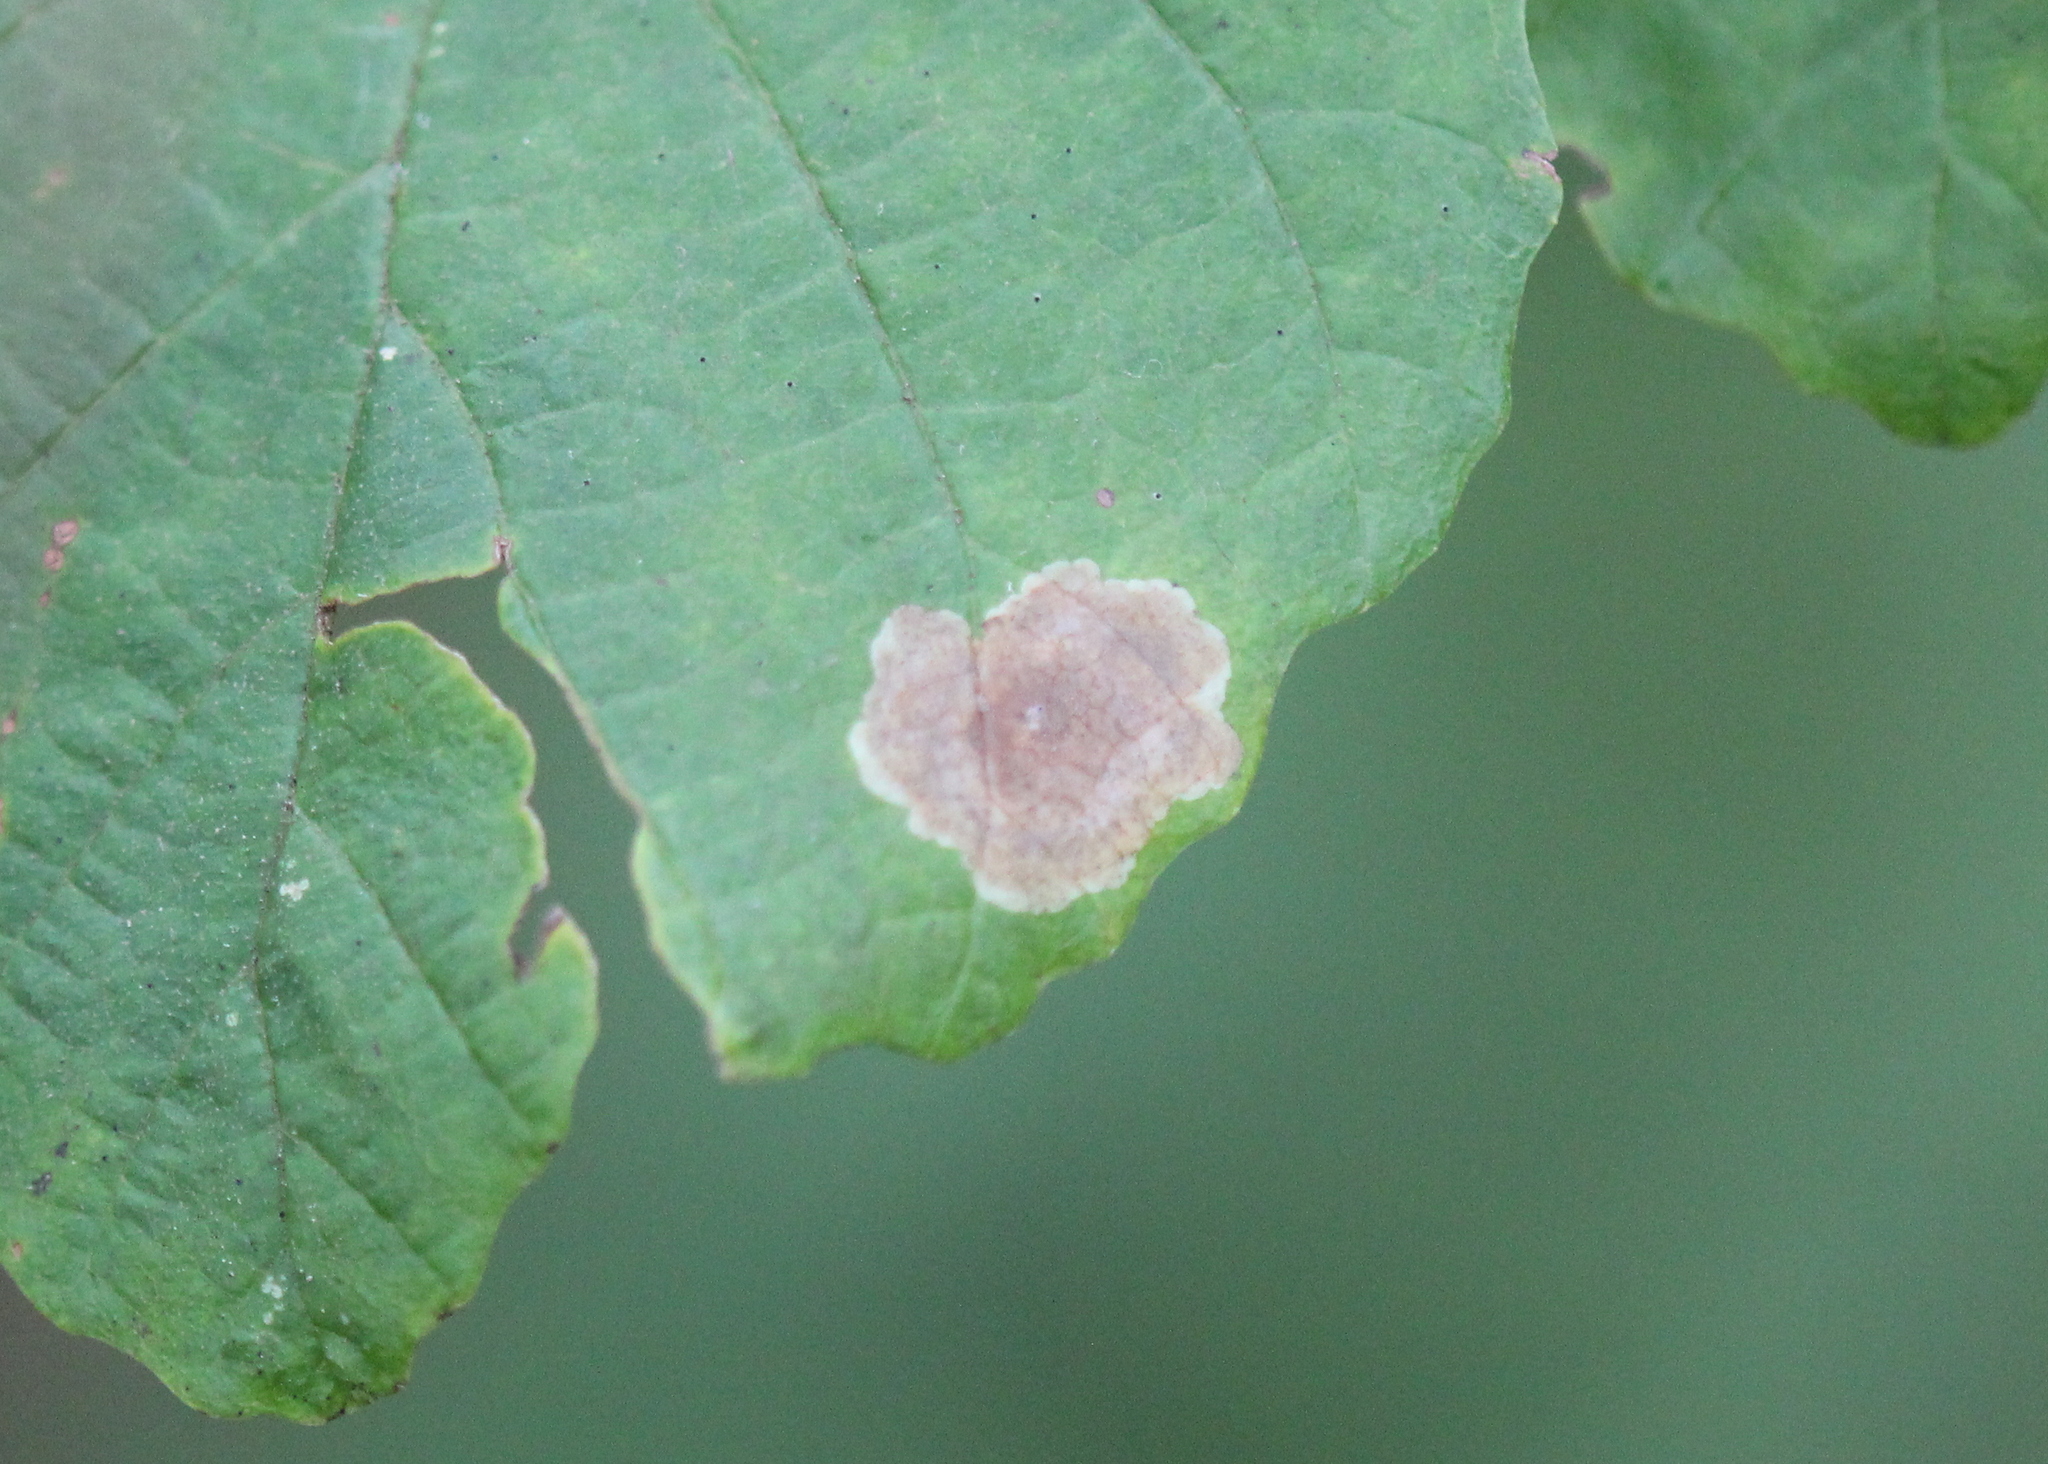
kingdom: Animalia
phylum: Arthropoda
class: Insecta
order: Lepidoptera
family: Gracillariidae
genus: Cameraria
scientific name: Cameraria hamameliella
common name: Witchhazel leafminer
